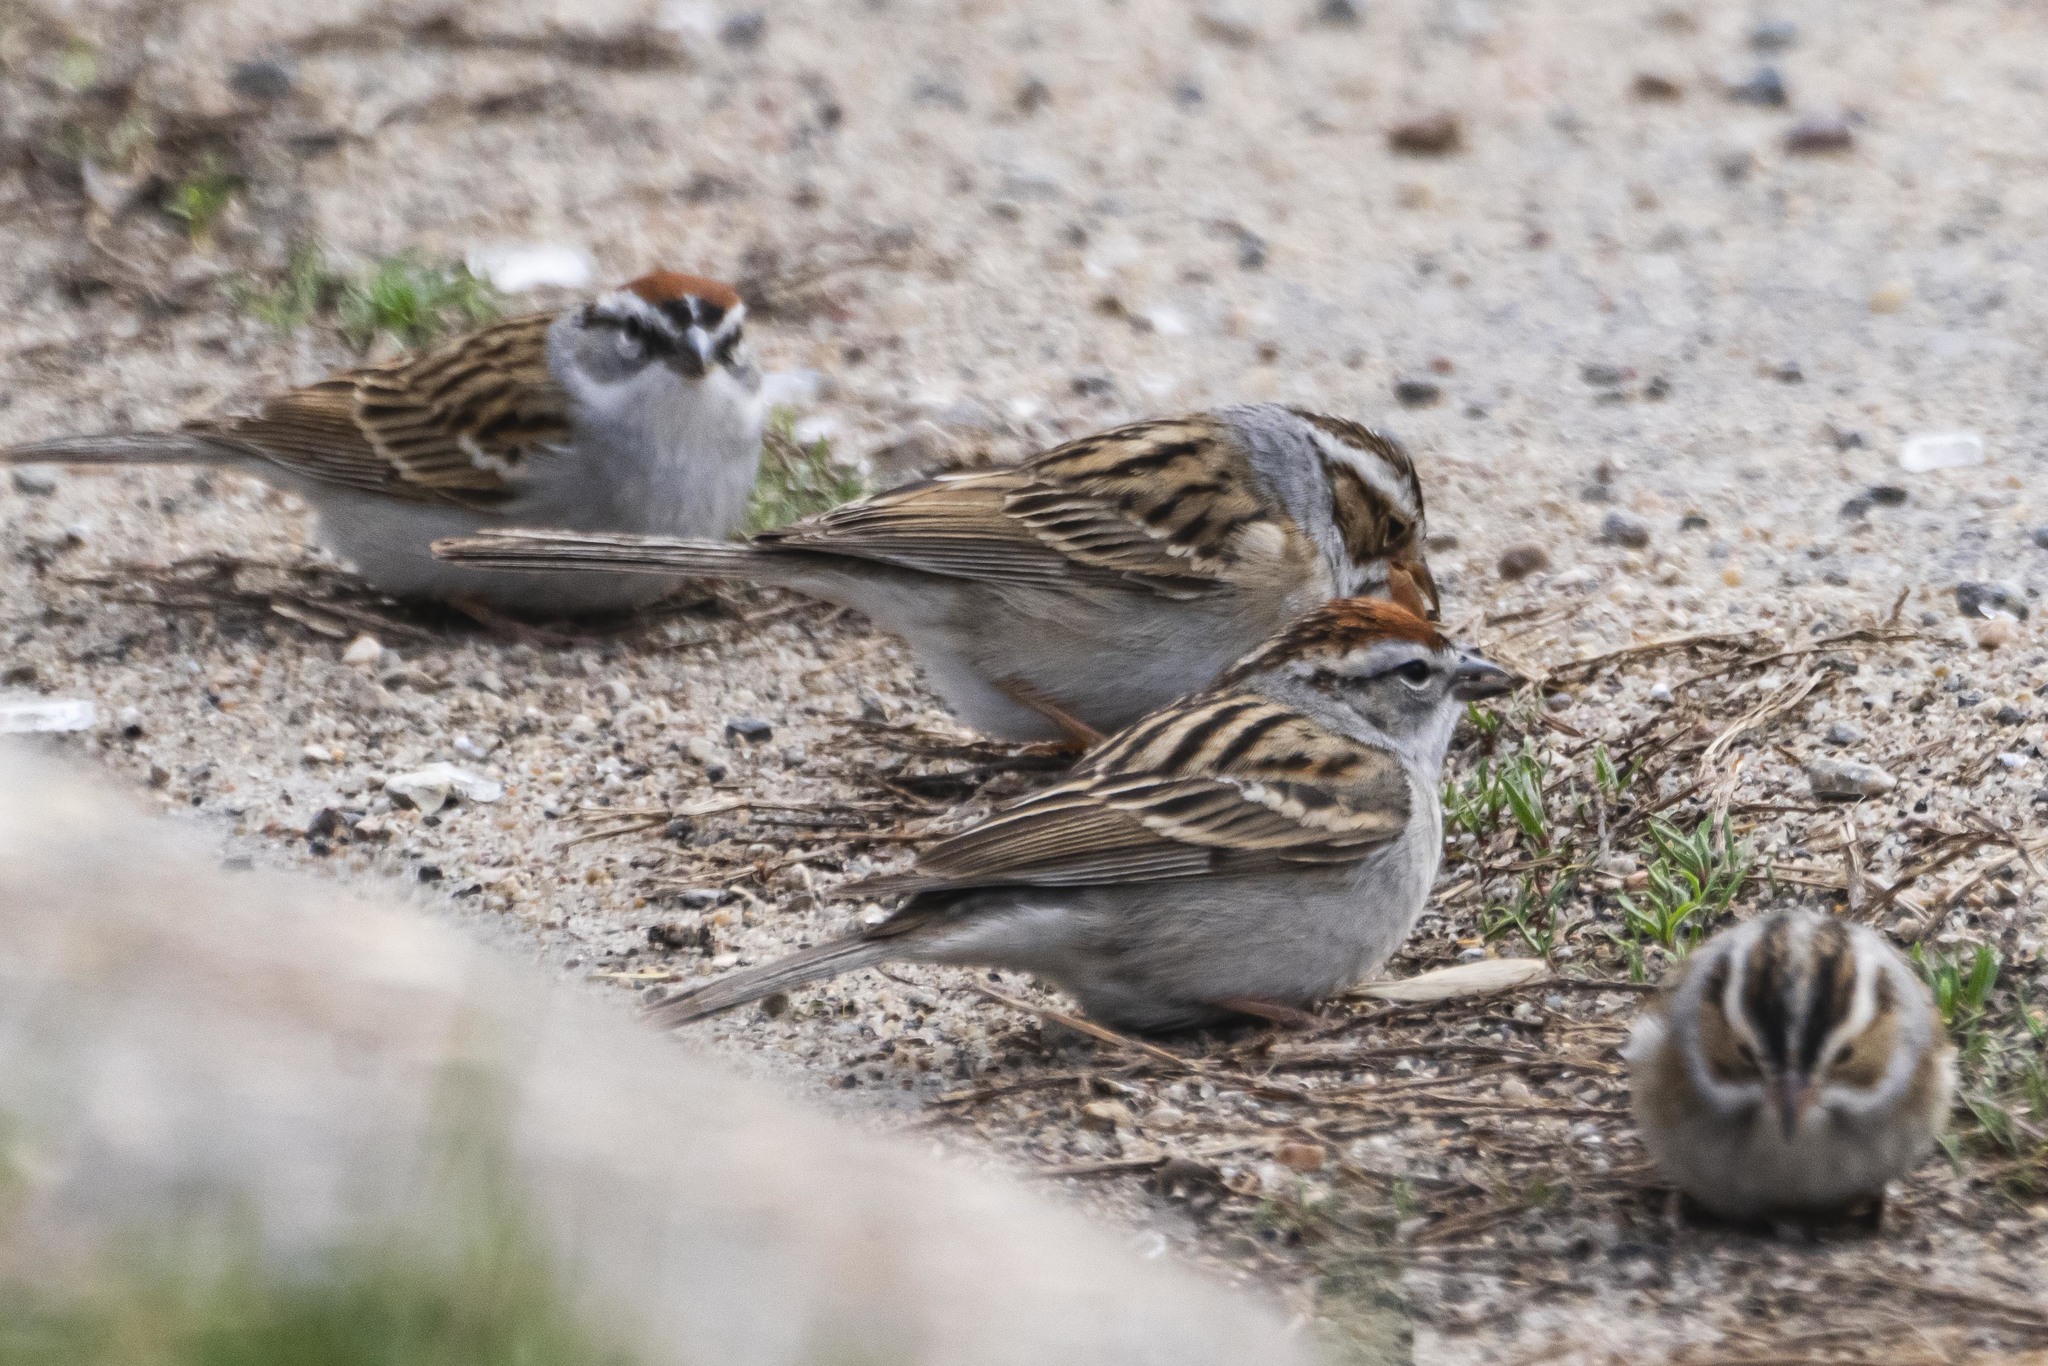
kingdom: Animalia
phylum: Chordata
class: Aves
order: Passeriformes
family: Passerellidae
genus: Spizella
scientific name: Spizella passerina
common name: Chipping sparrow
